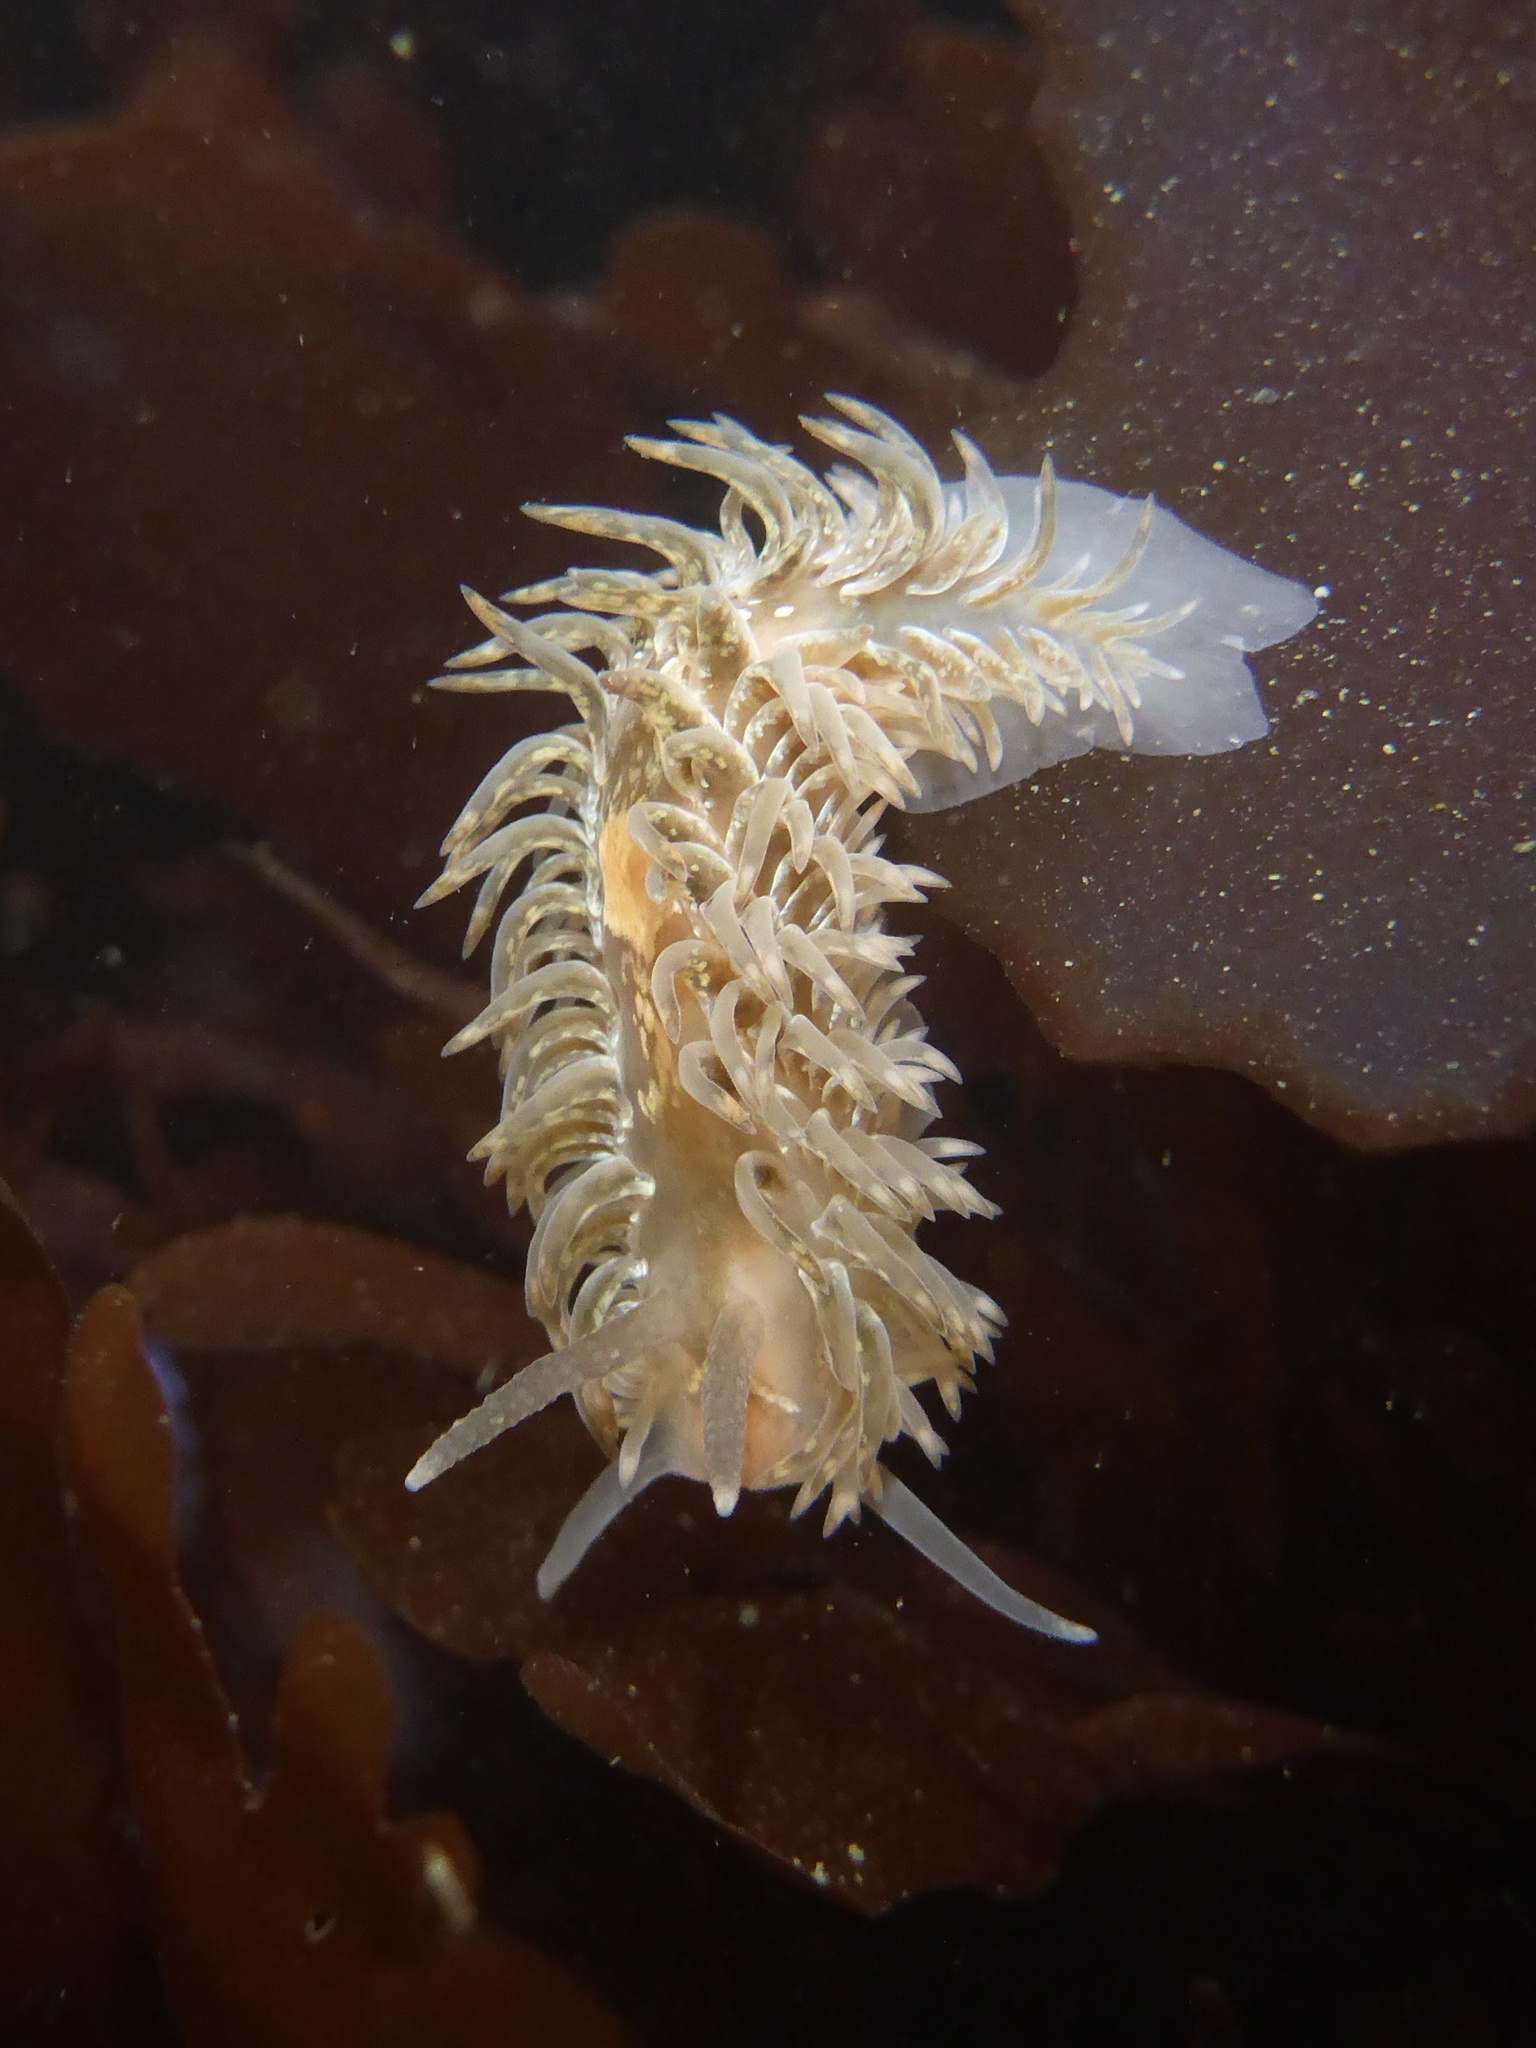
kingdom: Animalia
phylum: Mollusca
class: Gastropoda
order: Nudibranchia
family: Aeolidiidae
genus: Aeolidia
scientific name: Aeolidia loui
